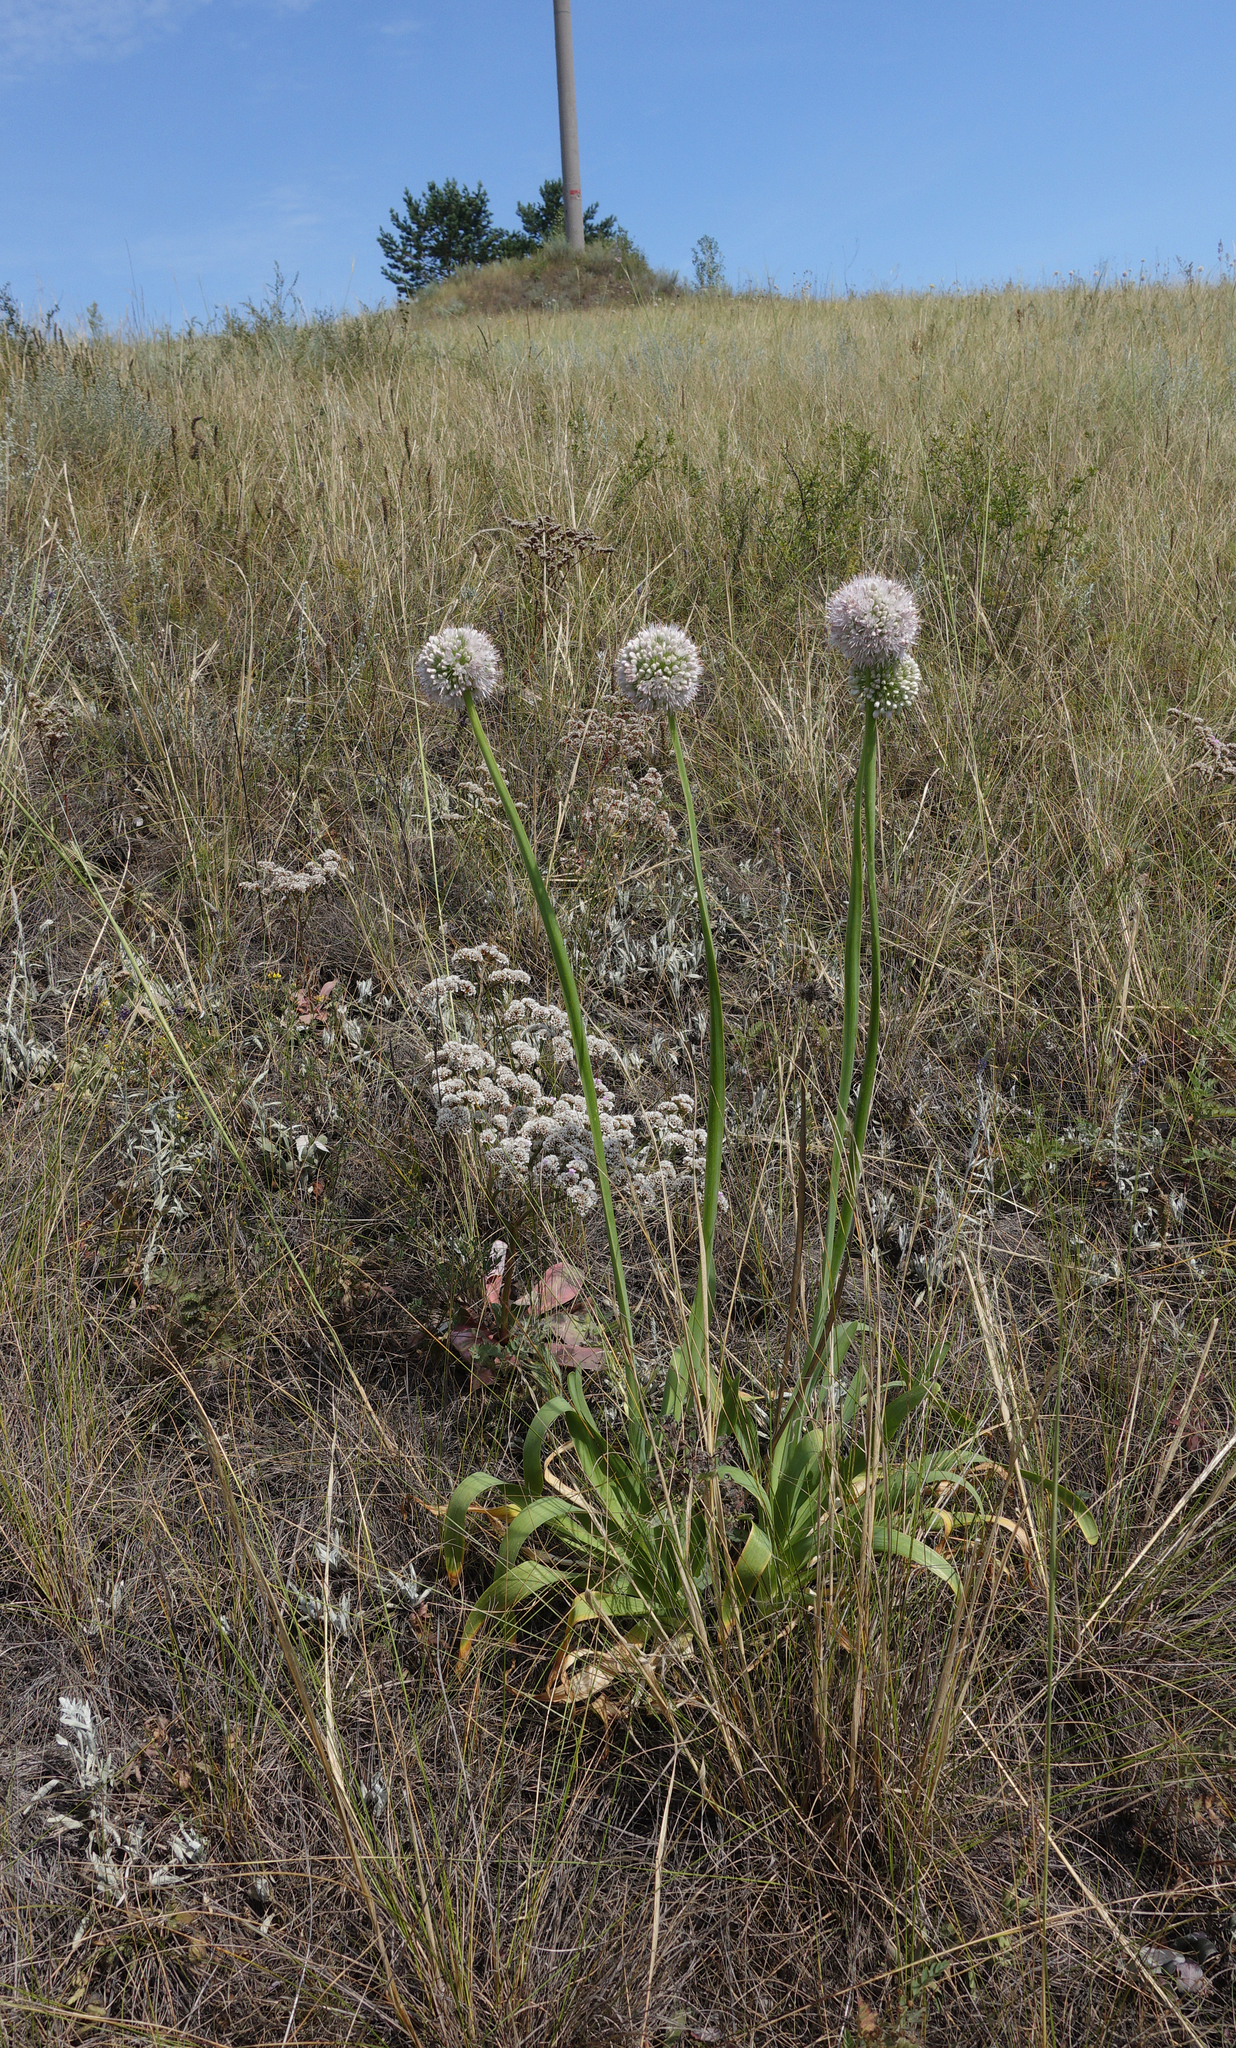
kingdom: Plantae
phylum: Tracheophyta
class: Liliopsida
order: Asparagales
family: Amaryllidaceae
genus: Allium
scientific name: Allium nutans
